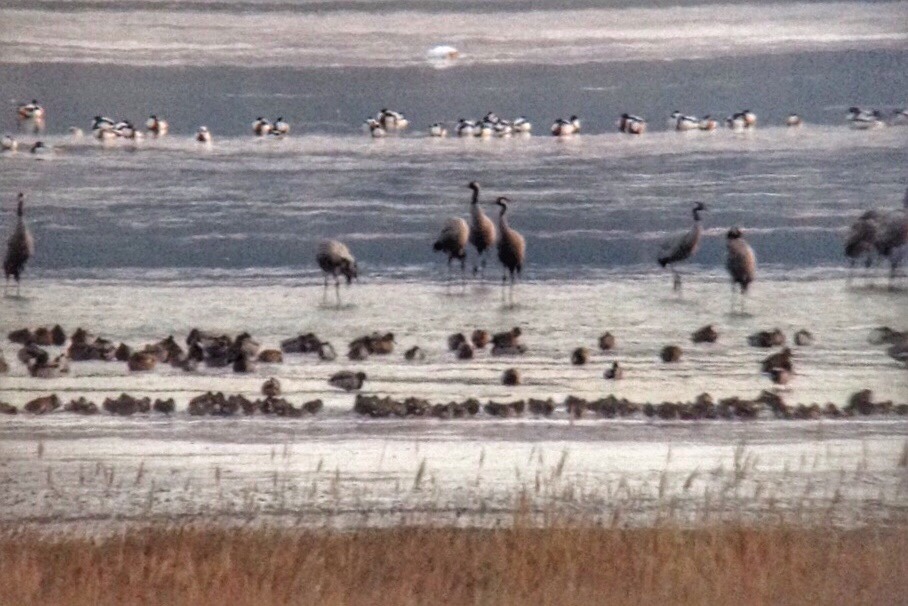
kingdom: Animalia
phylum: Chordata
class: Aves
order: Gruiformes
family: Gruidae
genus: Grus
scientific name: Grus grus
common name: Common crane
